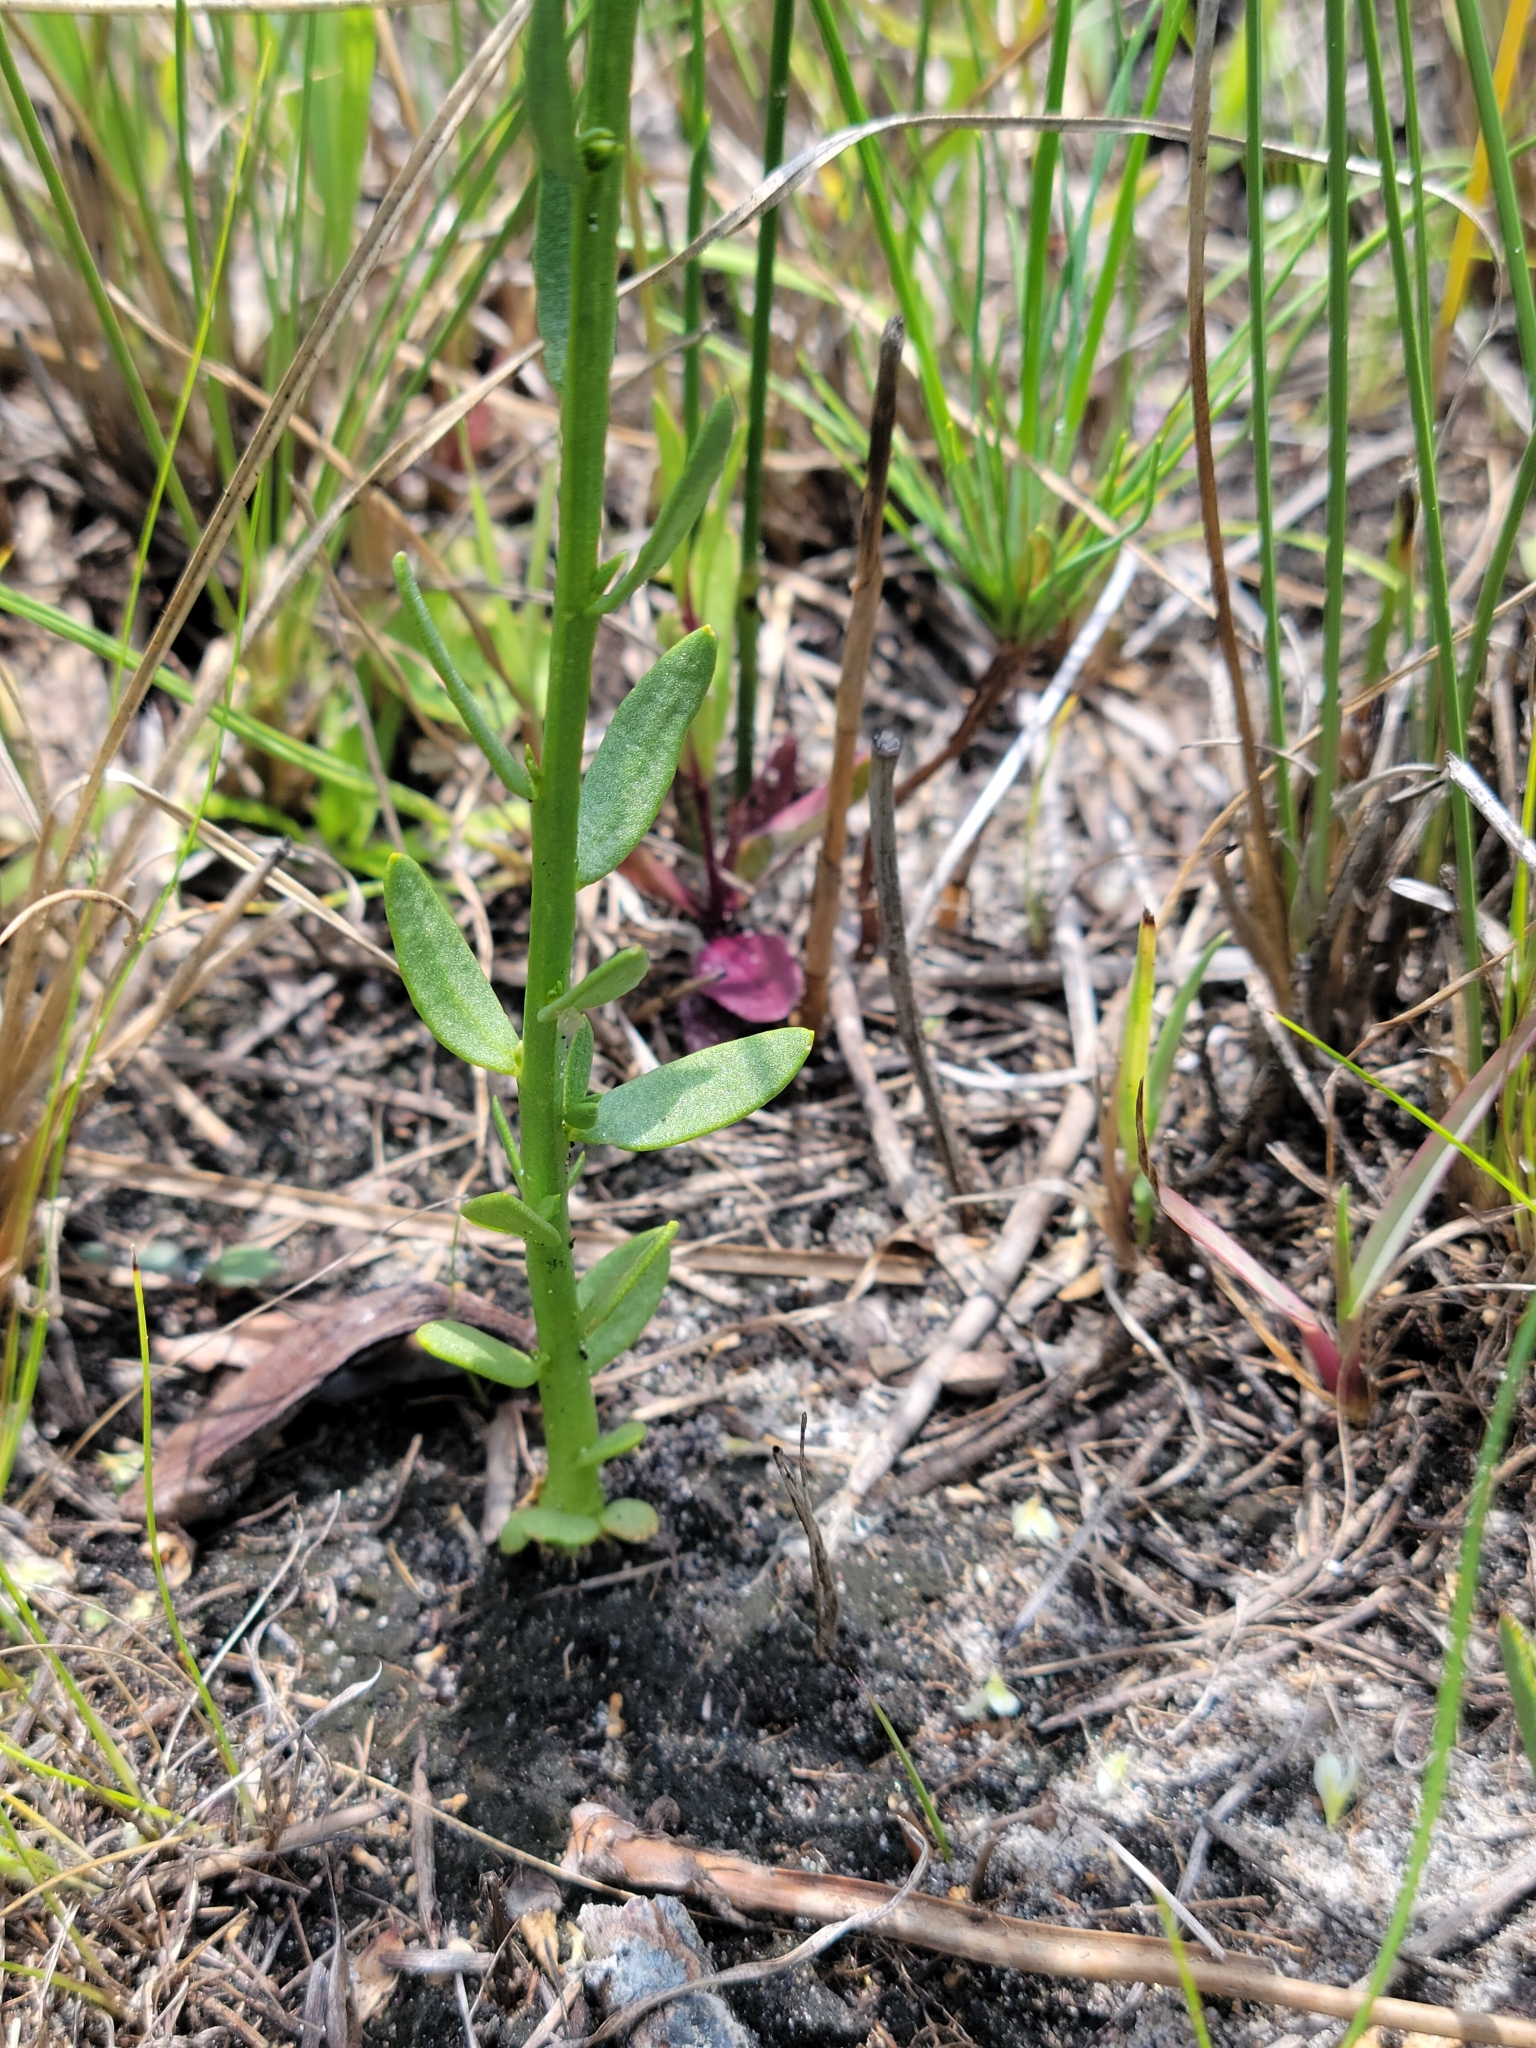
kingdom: Plantae
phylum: Tracheophyta
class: Magnoliopsida
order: Fabales
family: Polygalaceae
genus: Polygala
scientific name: Polygala baldwinii
